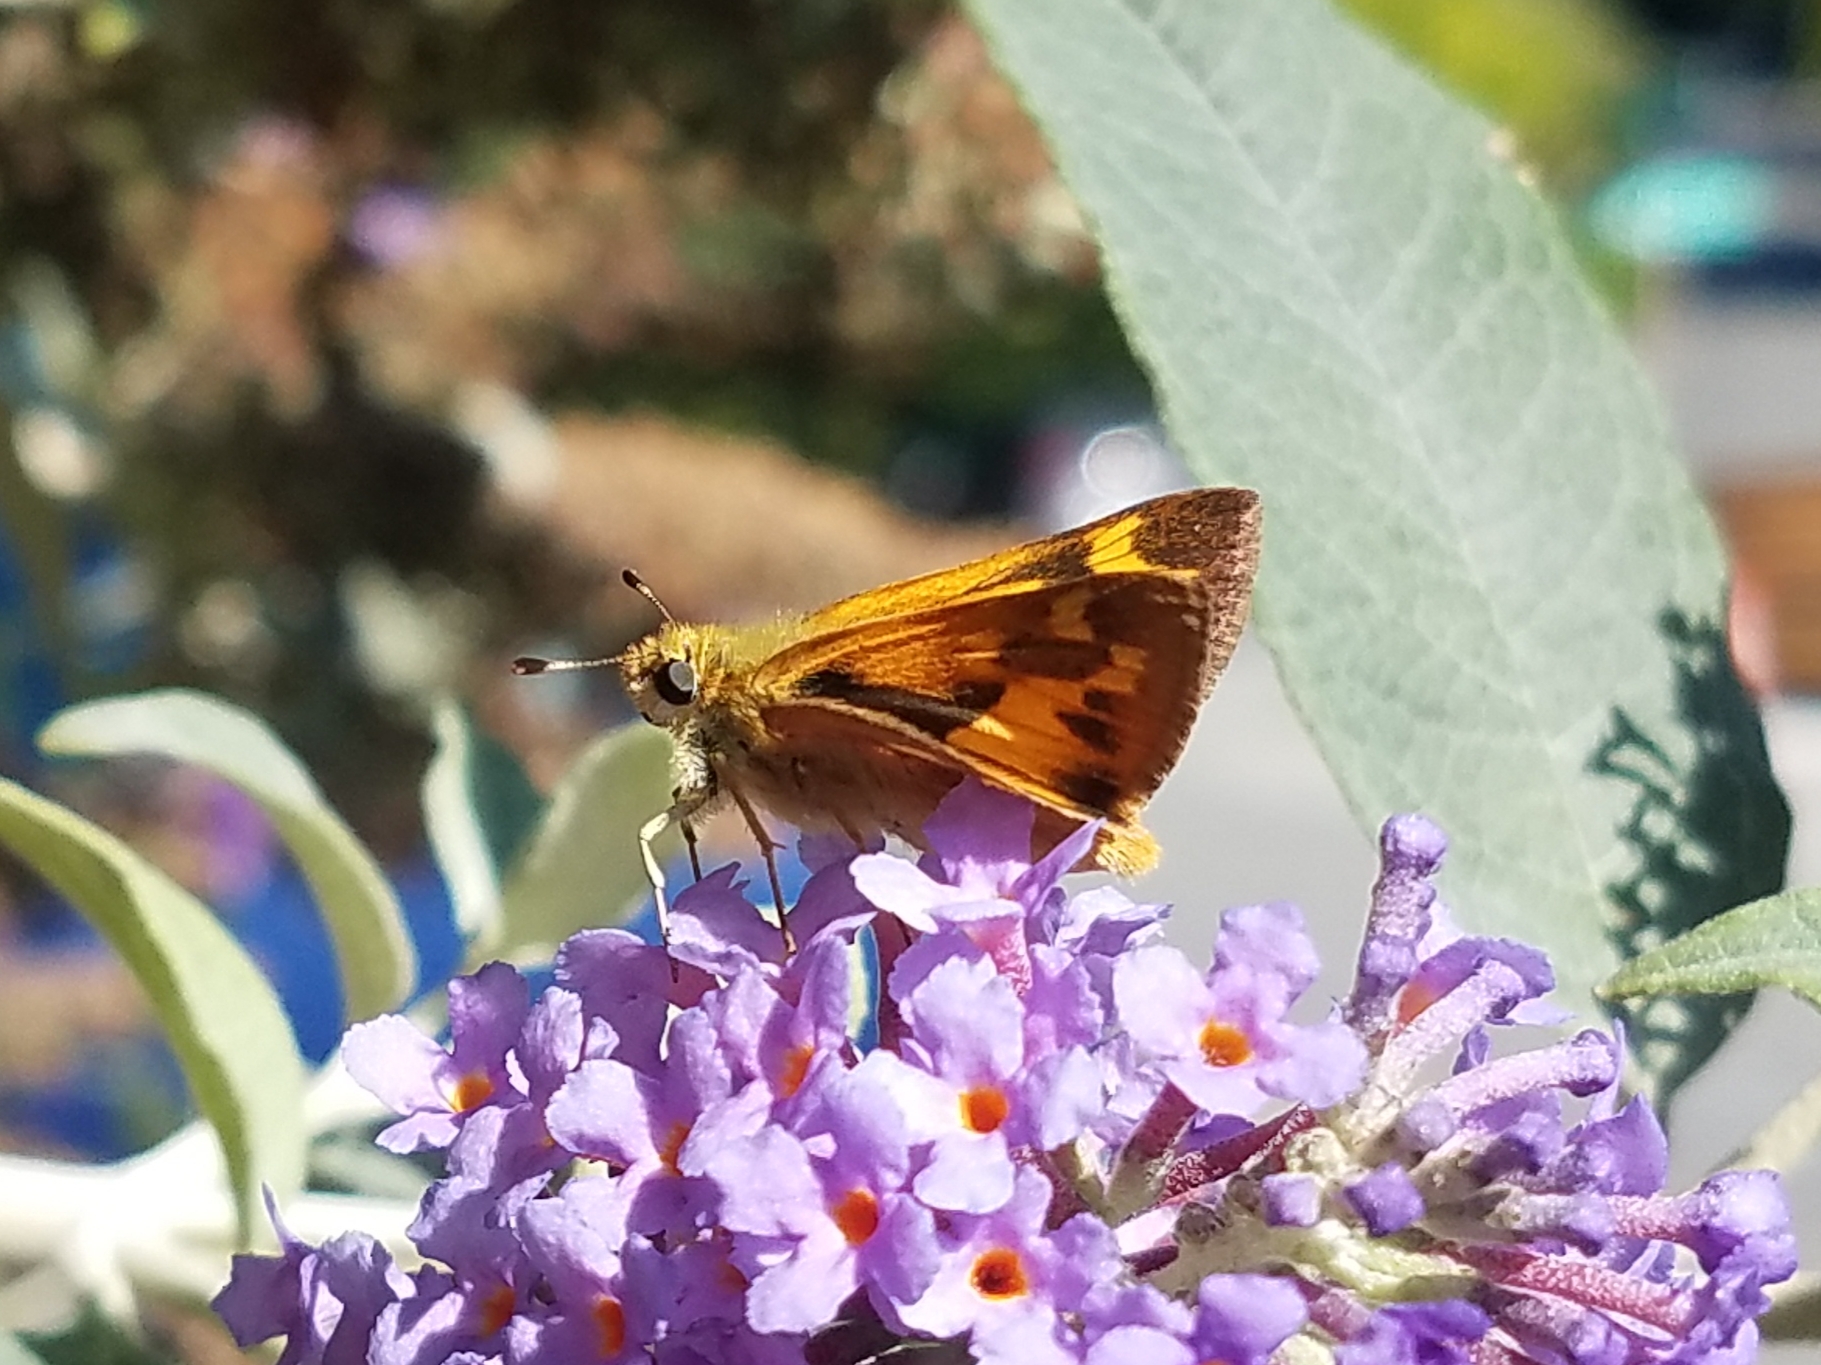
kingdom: Animalia
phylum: Arthropoda
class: Insecta
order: Lepidoptera
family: Hesperiidae
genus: Ochlodes
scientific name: Ochlodes sylvanoides
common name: Woodland skipper
